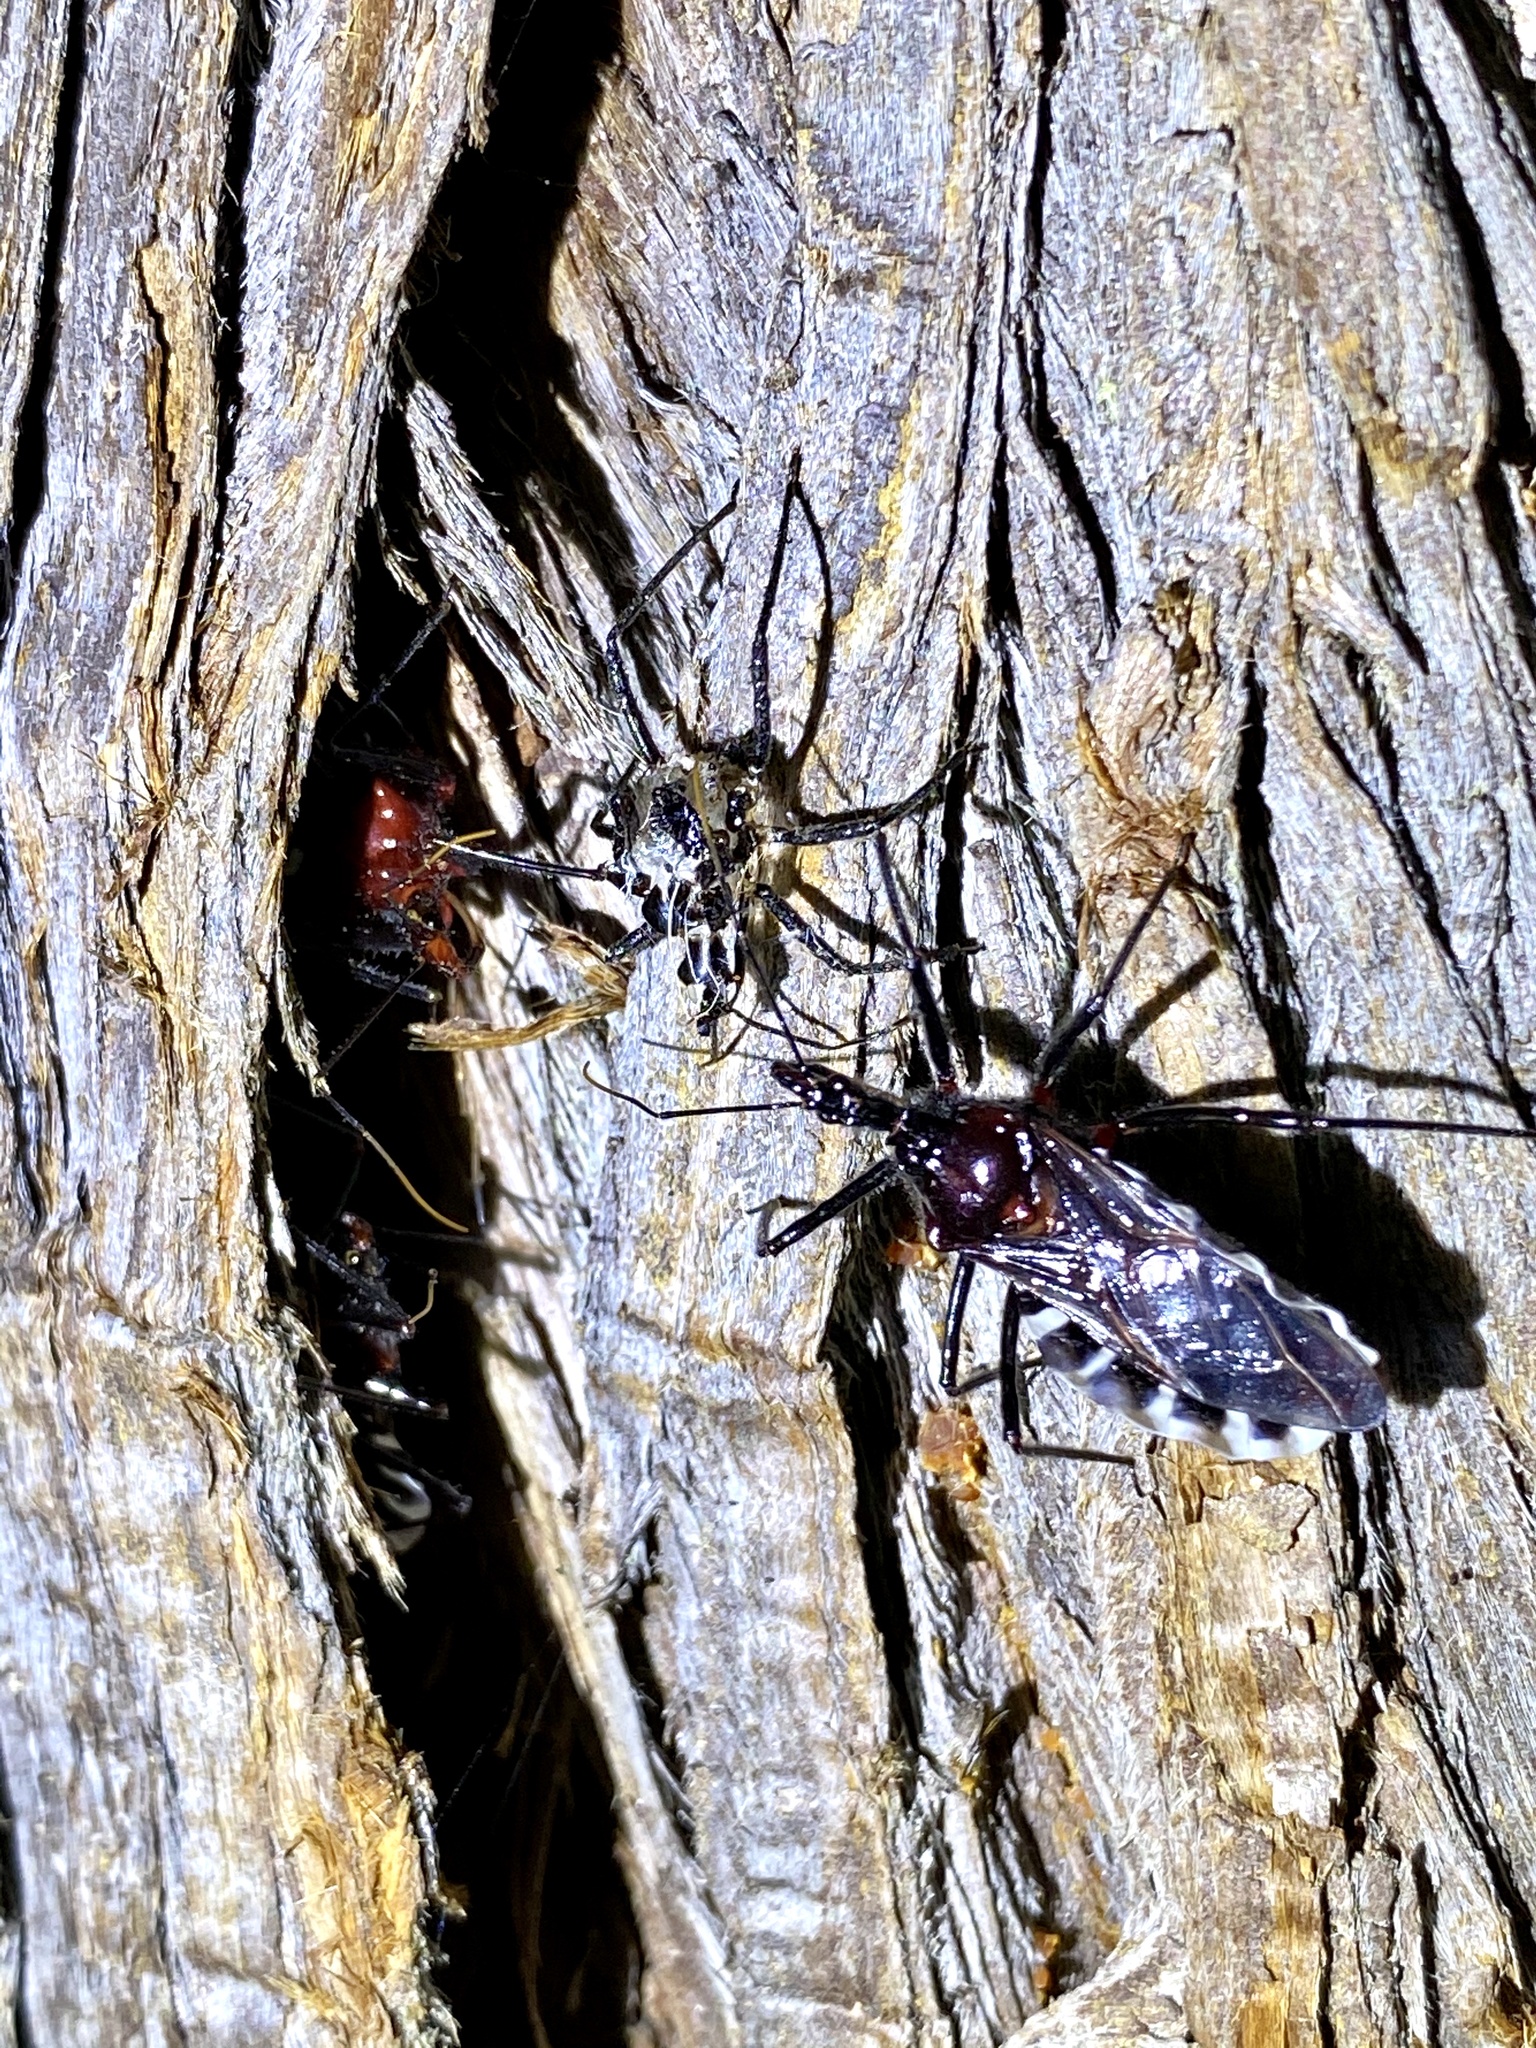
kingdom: Animalia
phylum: Arthropoda
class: Insecta
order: Hemiptera
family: Reduviidae
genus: Agriosphodrus
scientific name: Agriosphodrus dohrni
